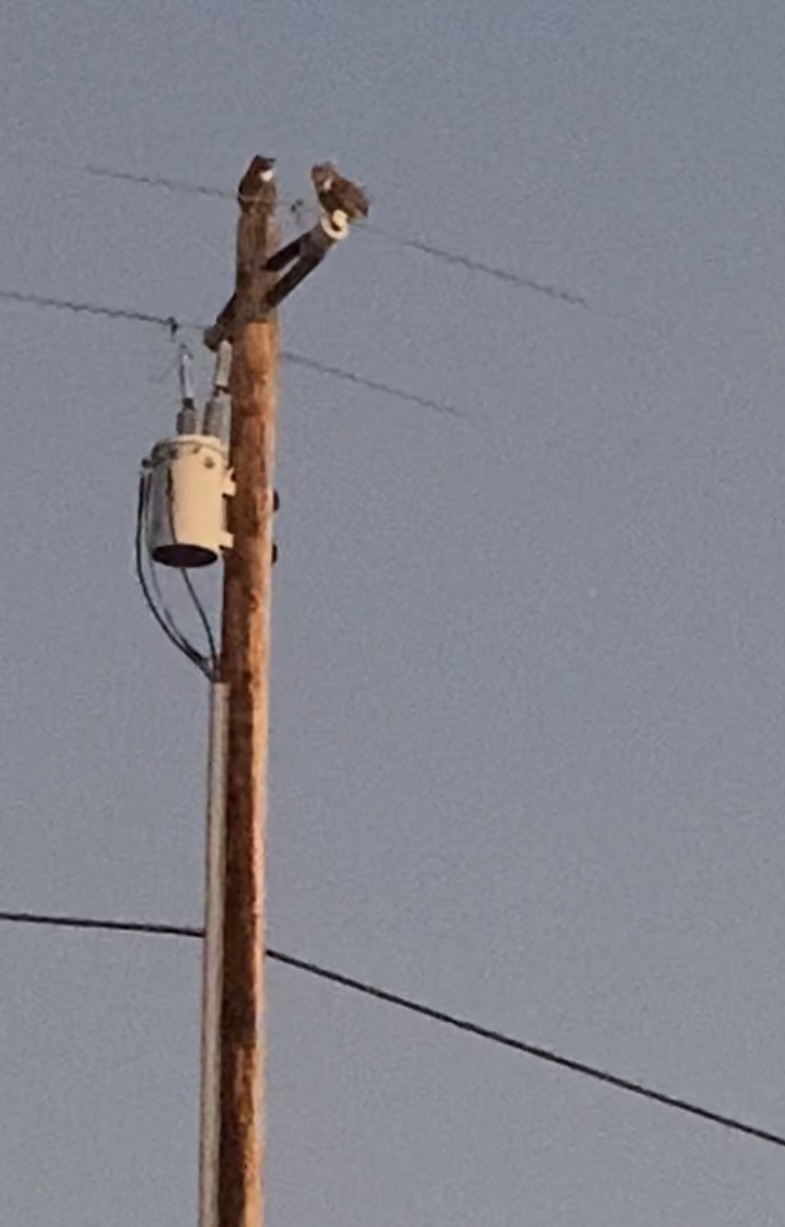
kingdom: Animalia
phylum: Chordata
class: Aves
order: Strigiformes
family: Strigidae
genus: Bubo
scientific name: Bubo virginianus
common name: Great horned owl
